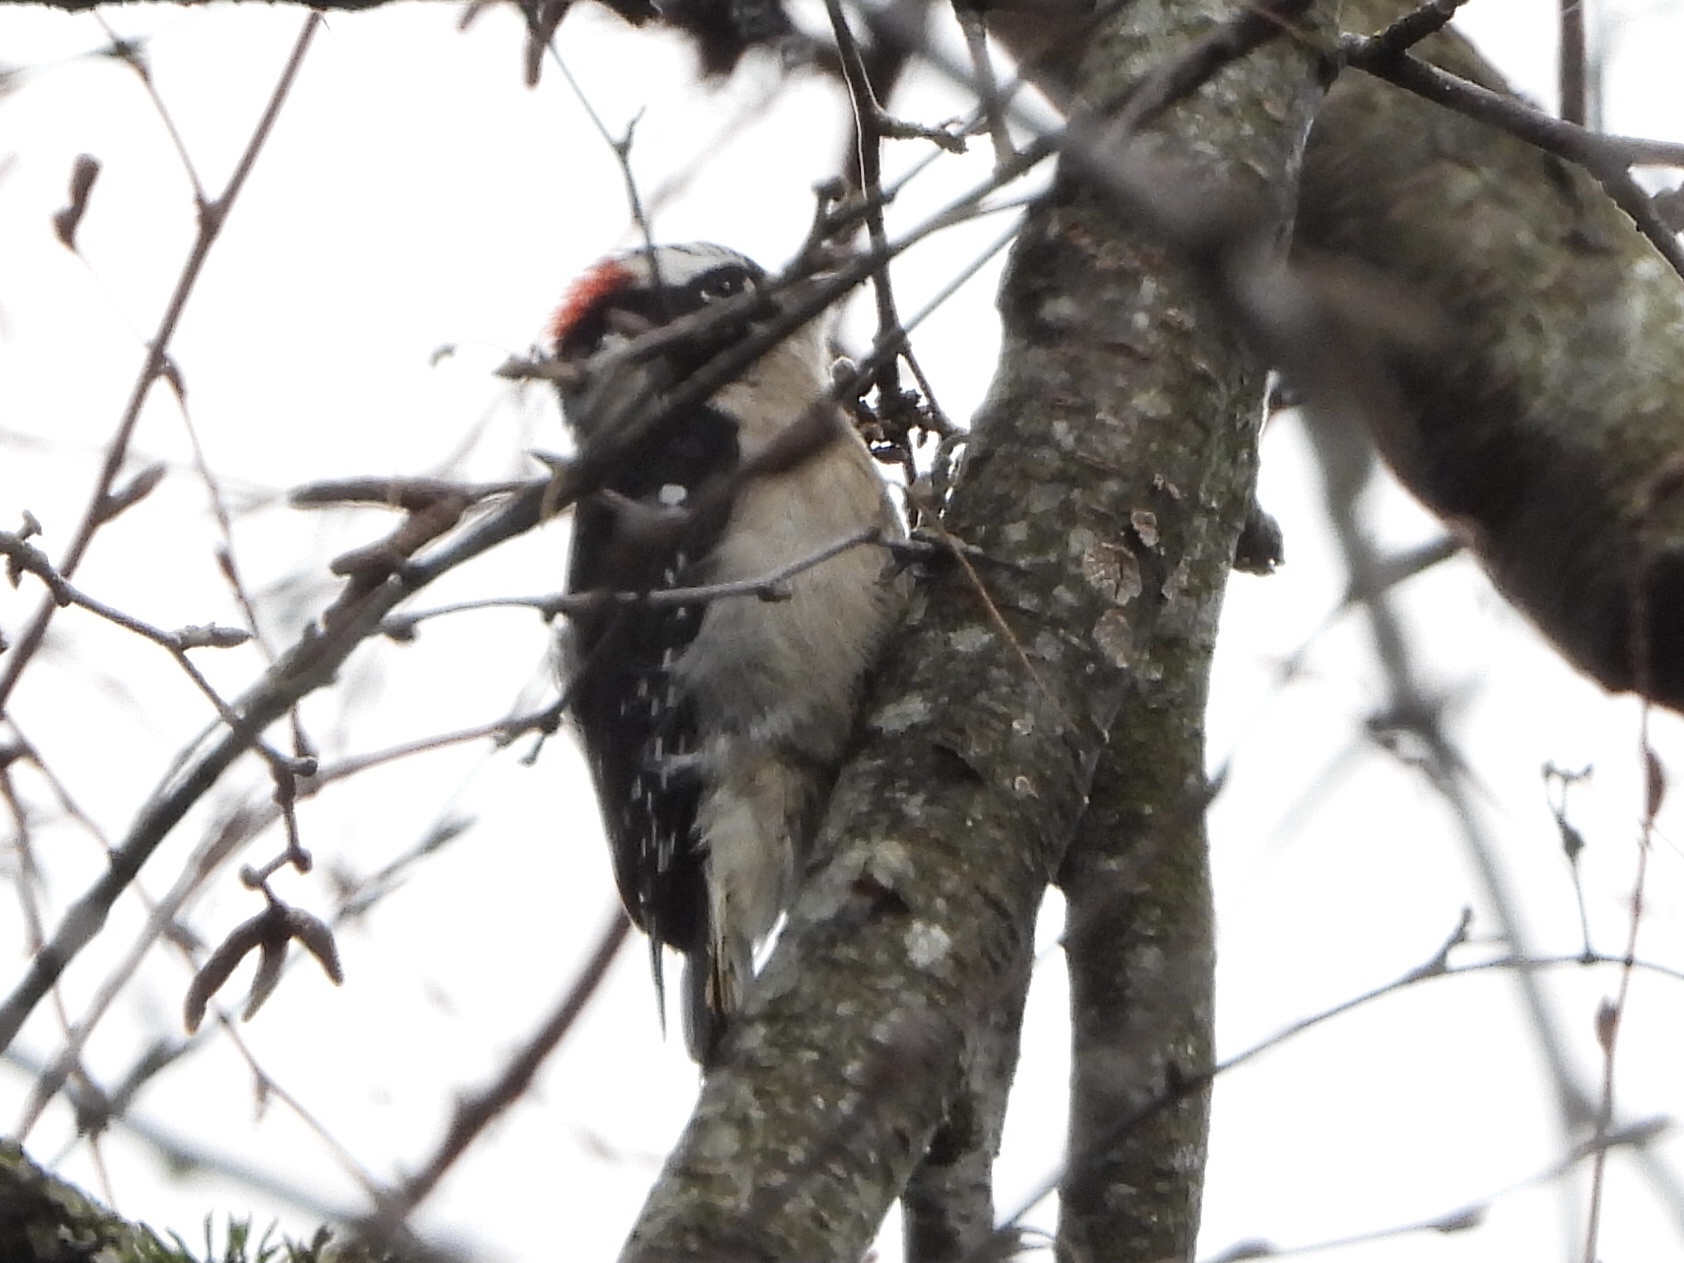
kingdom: Animalia
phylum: Chordata
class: Aves
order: Piciformes
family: Picidae
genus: Dryobates
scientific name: Dryobates pubescens
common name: Downy woodpecker
